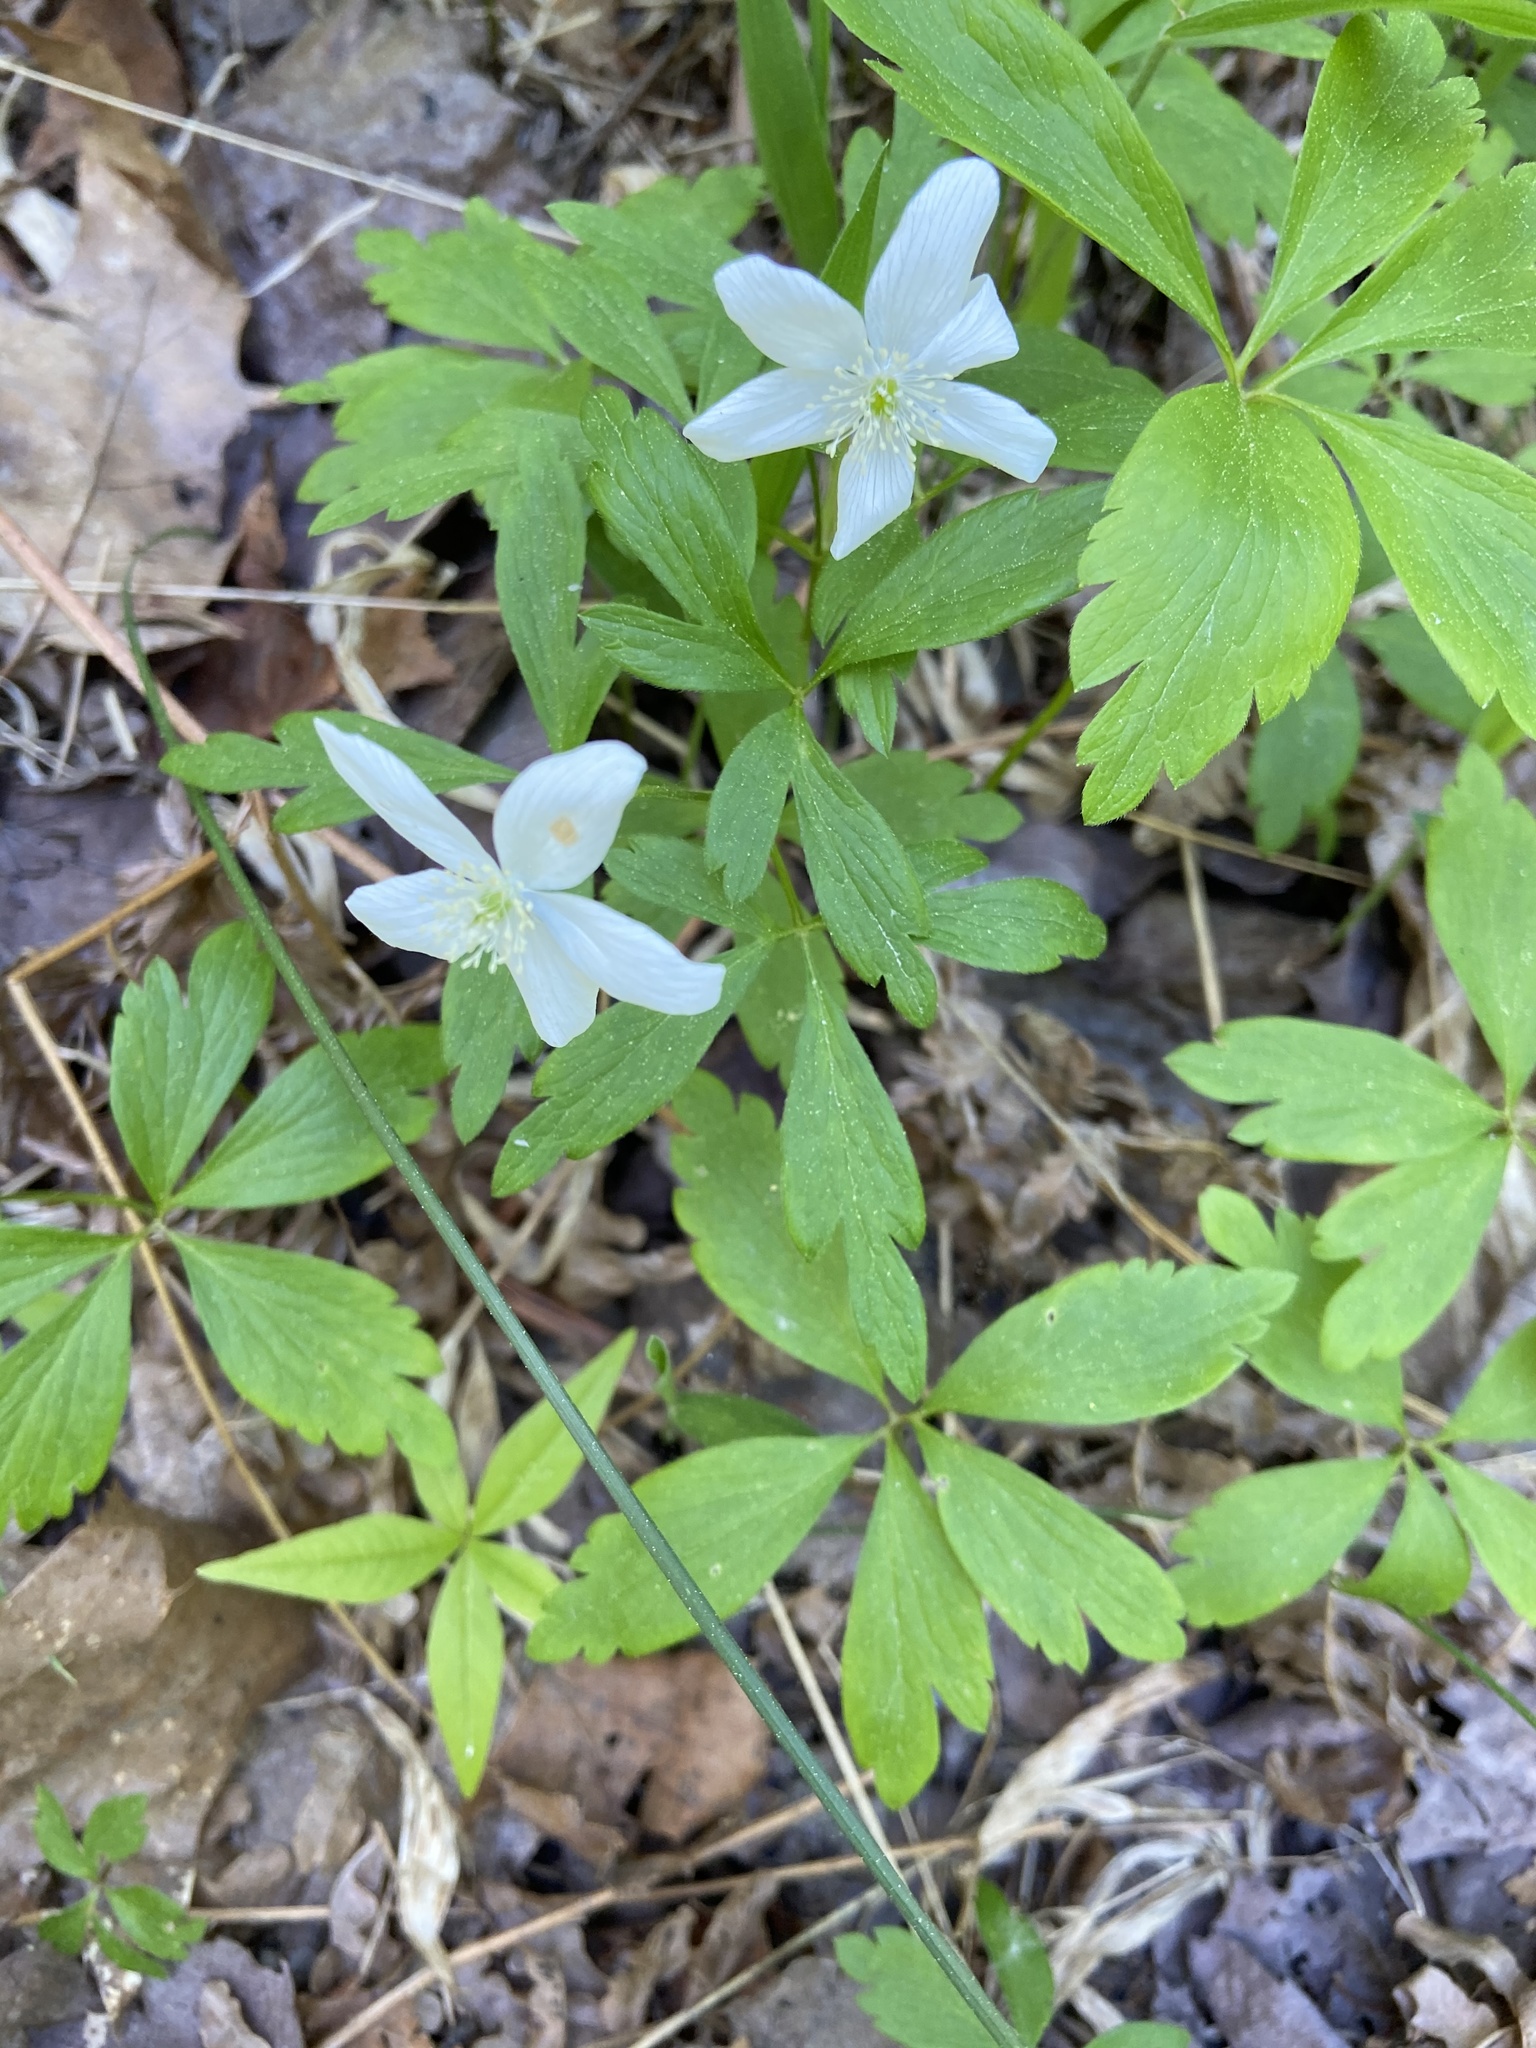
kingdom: Plantae
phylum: Tracheophyta
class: Magnoliopsida
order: Ranunculales
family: Ranunculaceae
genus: Anemone
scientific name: Anemone quinquefolia
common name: Wood anemone
